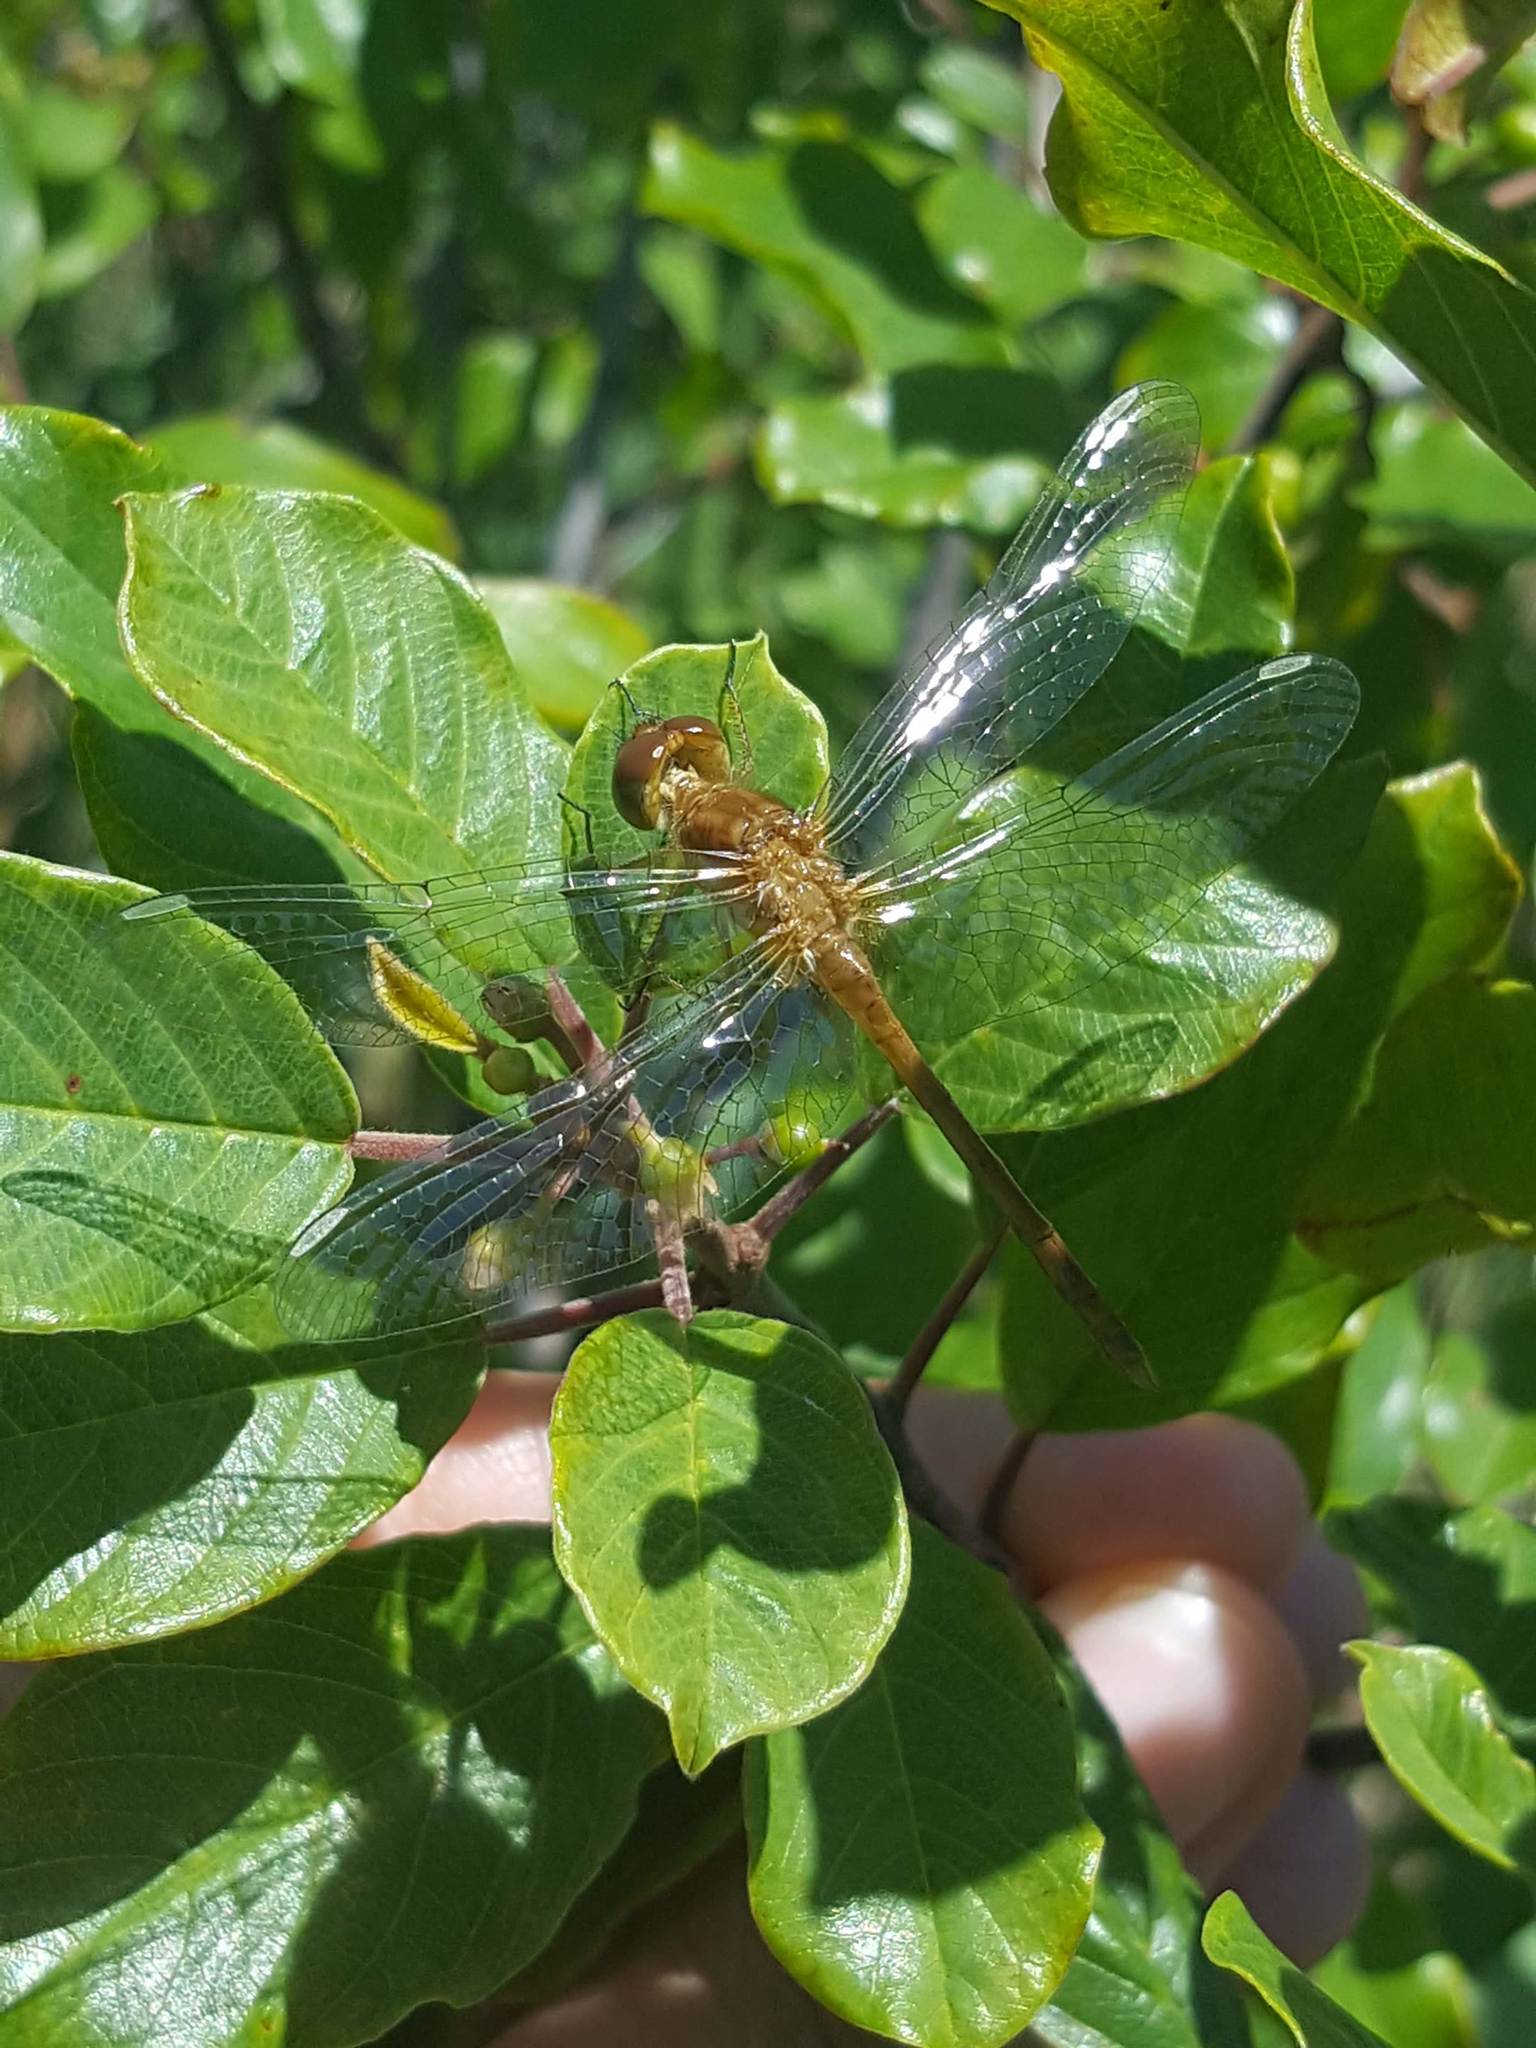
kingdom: Animalia
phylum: Arthropoda
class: Insecta
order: Odonata
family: Libellulidae
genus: Sympetrum
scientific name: Sympetrum vicinum
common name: Autumn meadowhawk
